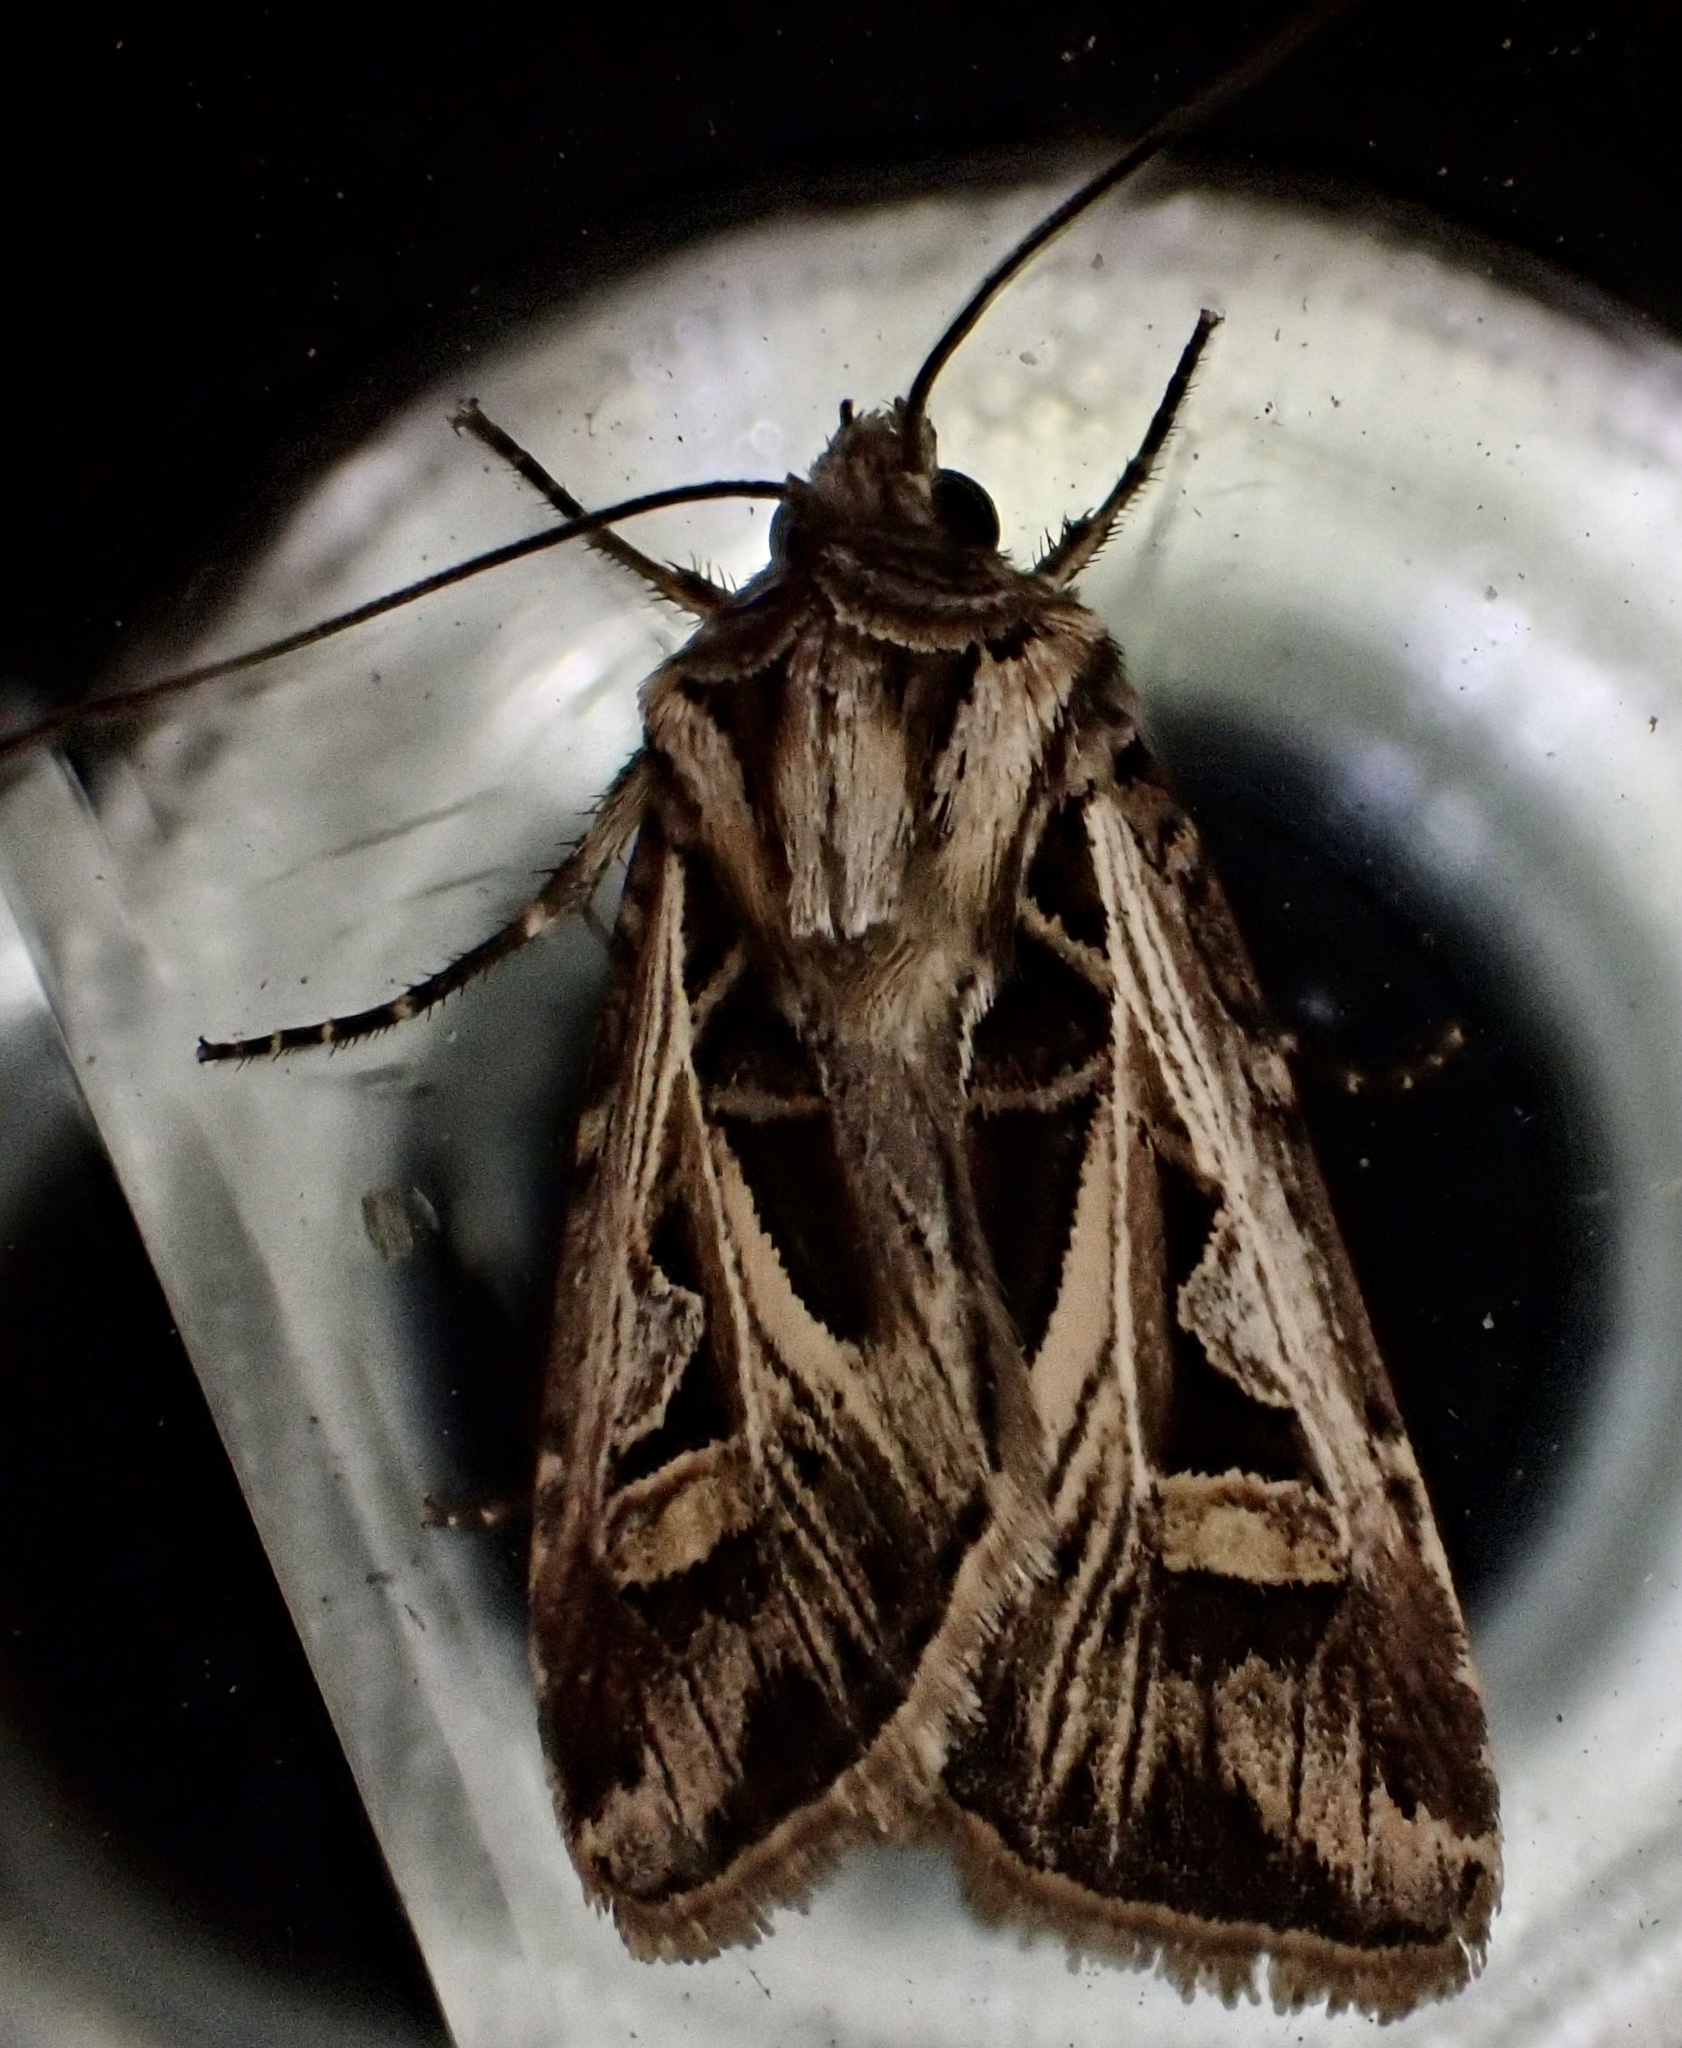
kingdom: Animalia
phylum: Arthropoda
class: Insecta
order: Lepidoptera
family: Noctuidae
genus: Feltia
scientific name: Feltia jaculifera
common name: Dingy cutworm moth
